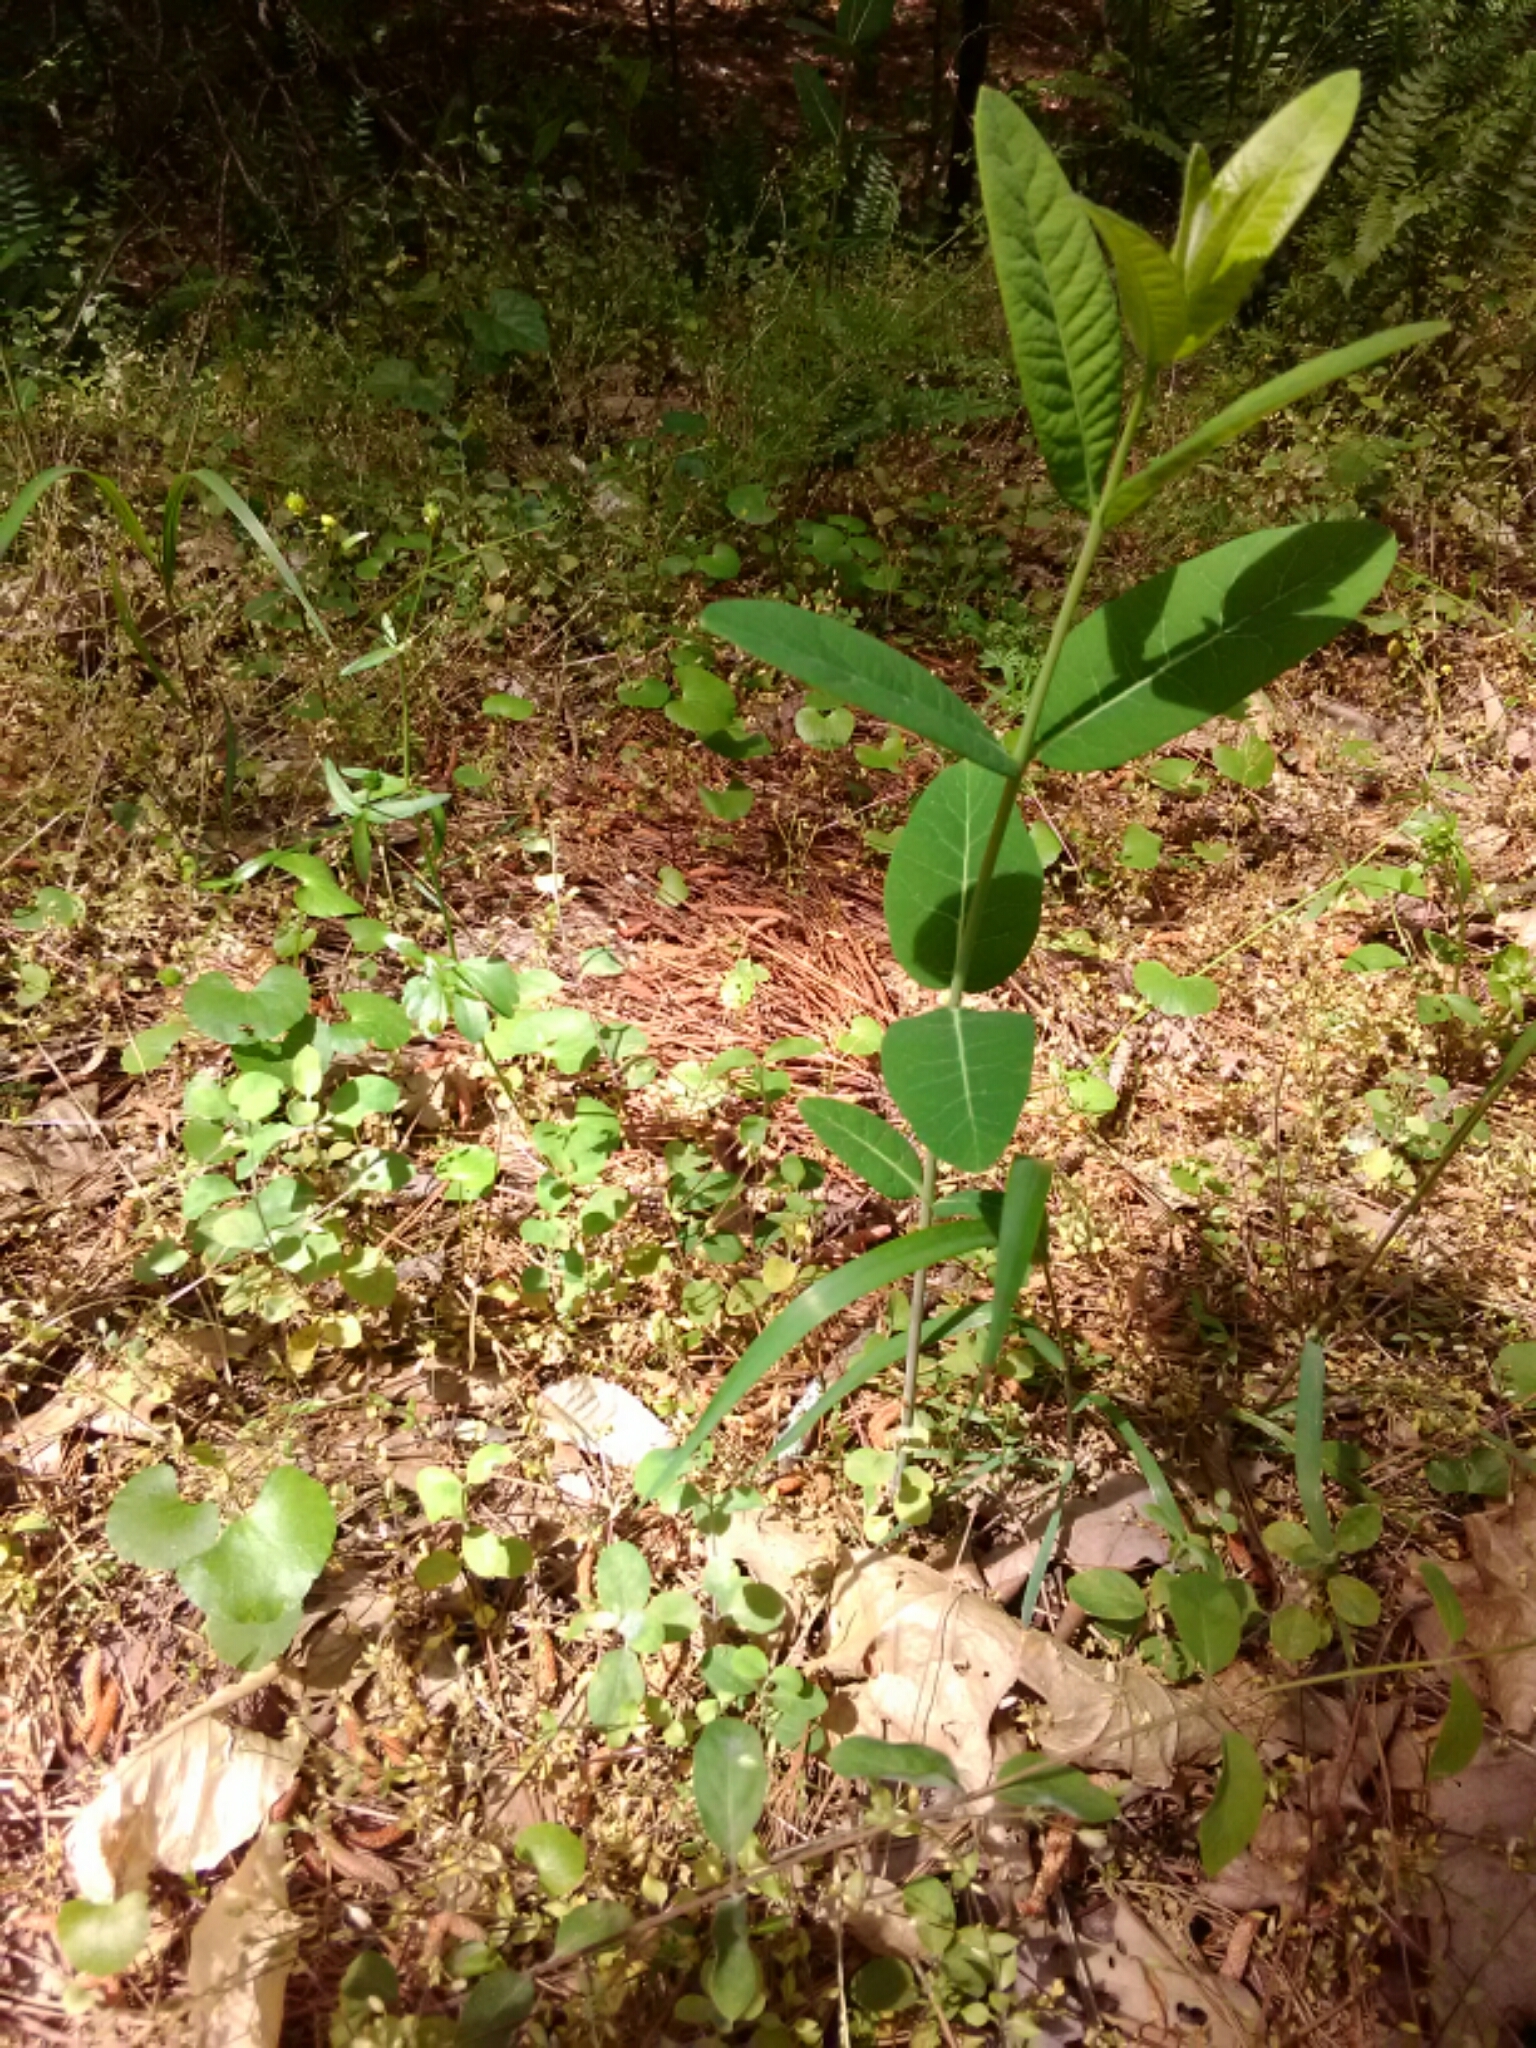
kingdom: Plantae
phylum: Tracheophyta
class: Magnoliopsida
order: Gentianales
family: Apocynaceae
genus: Apocynum
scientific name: Apocynum cannabinum
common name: Hemp dogbane
